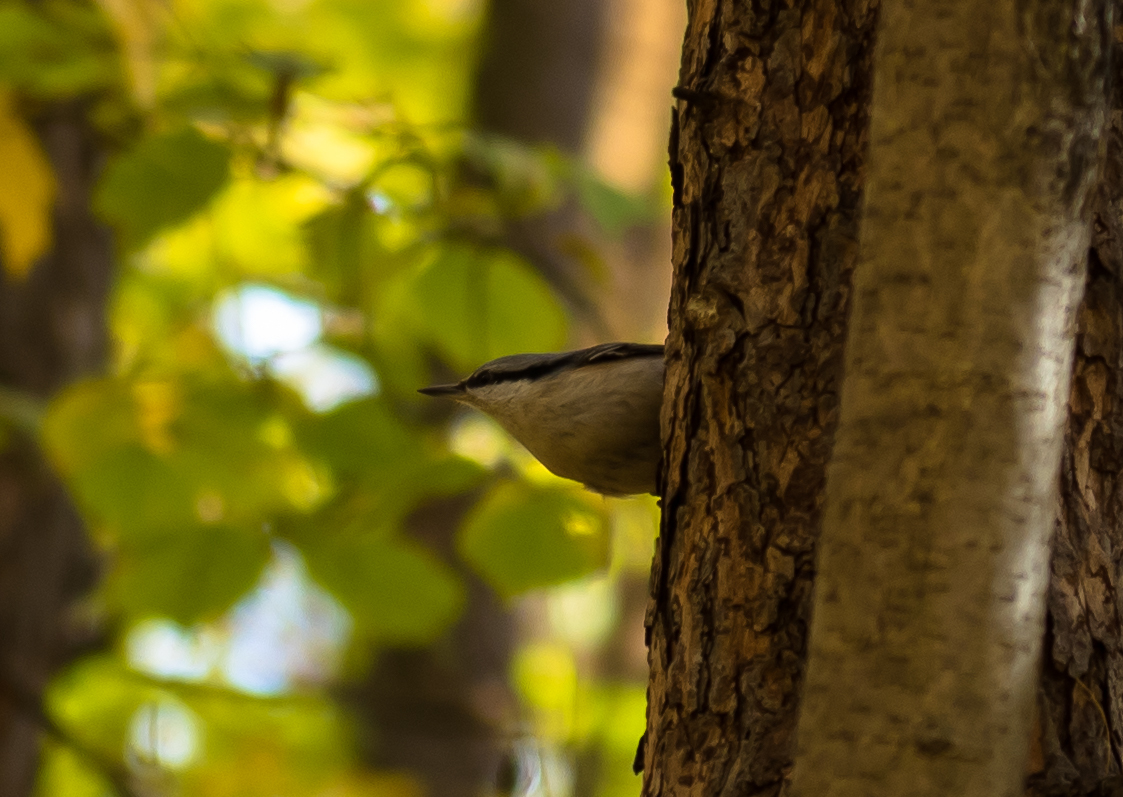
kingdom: Animalia
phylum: Chordata
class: Aves
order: Passeriformes
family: Sittidae
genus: Sitta
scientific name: Sitta europaea
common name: Eurasian nuthatch
